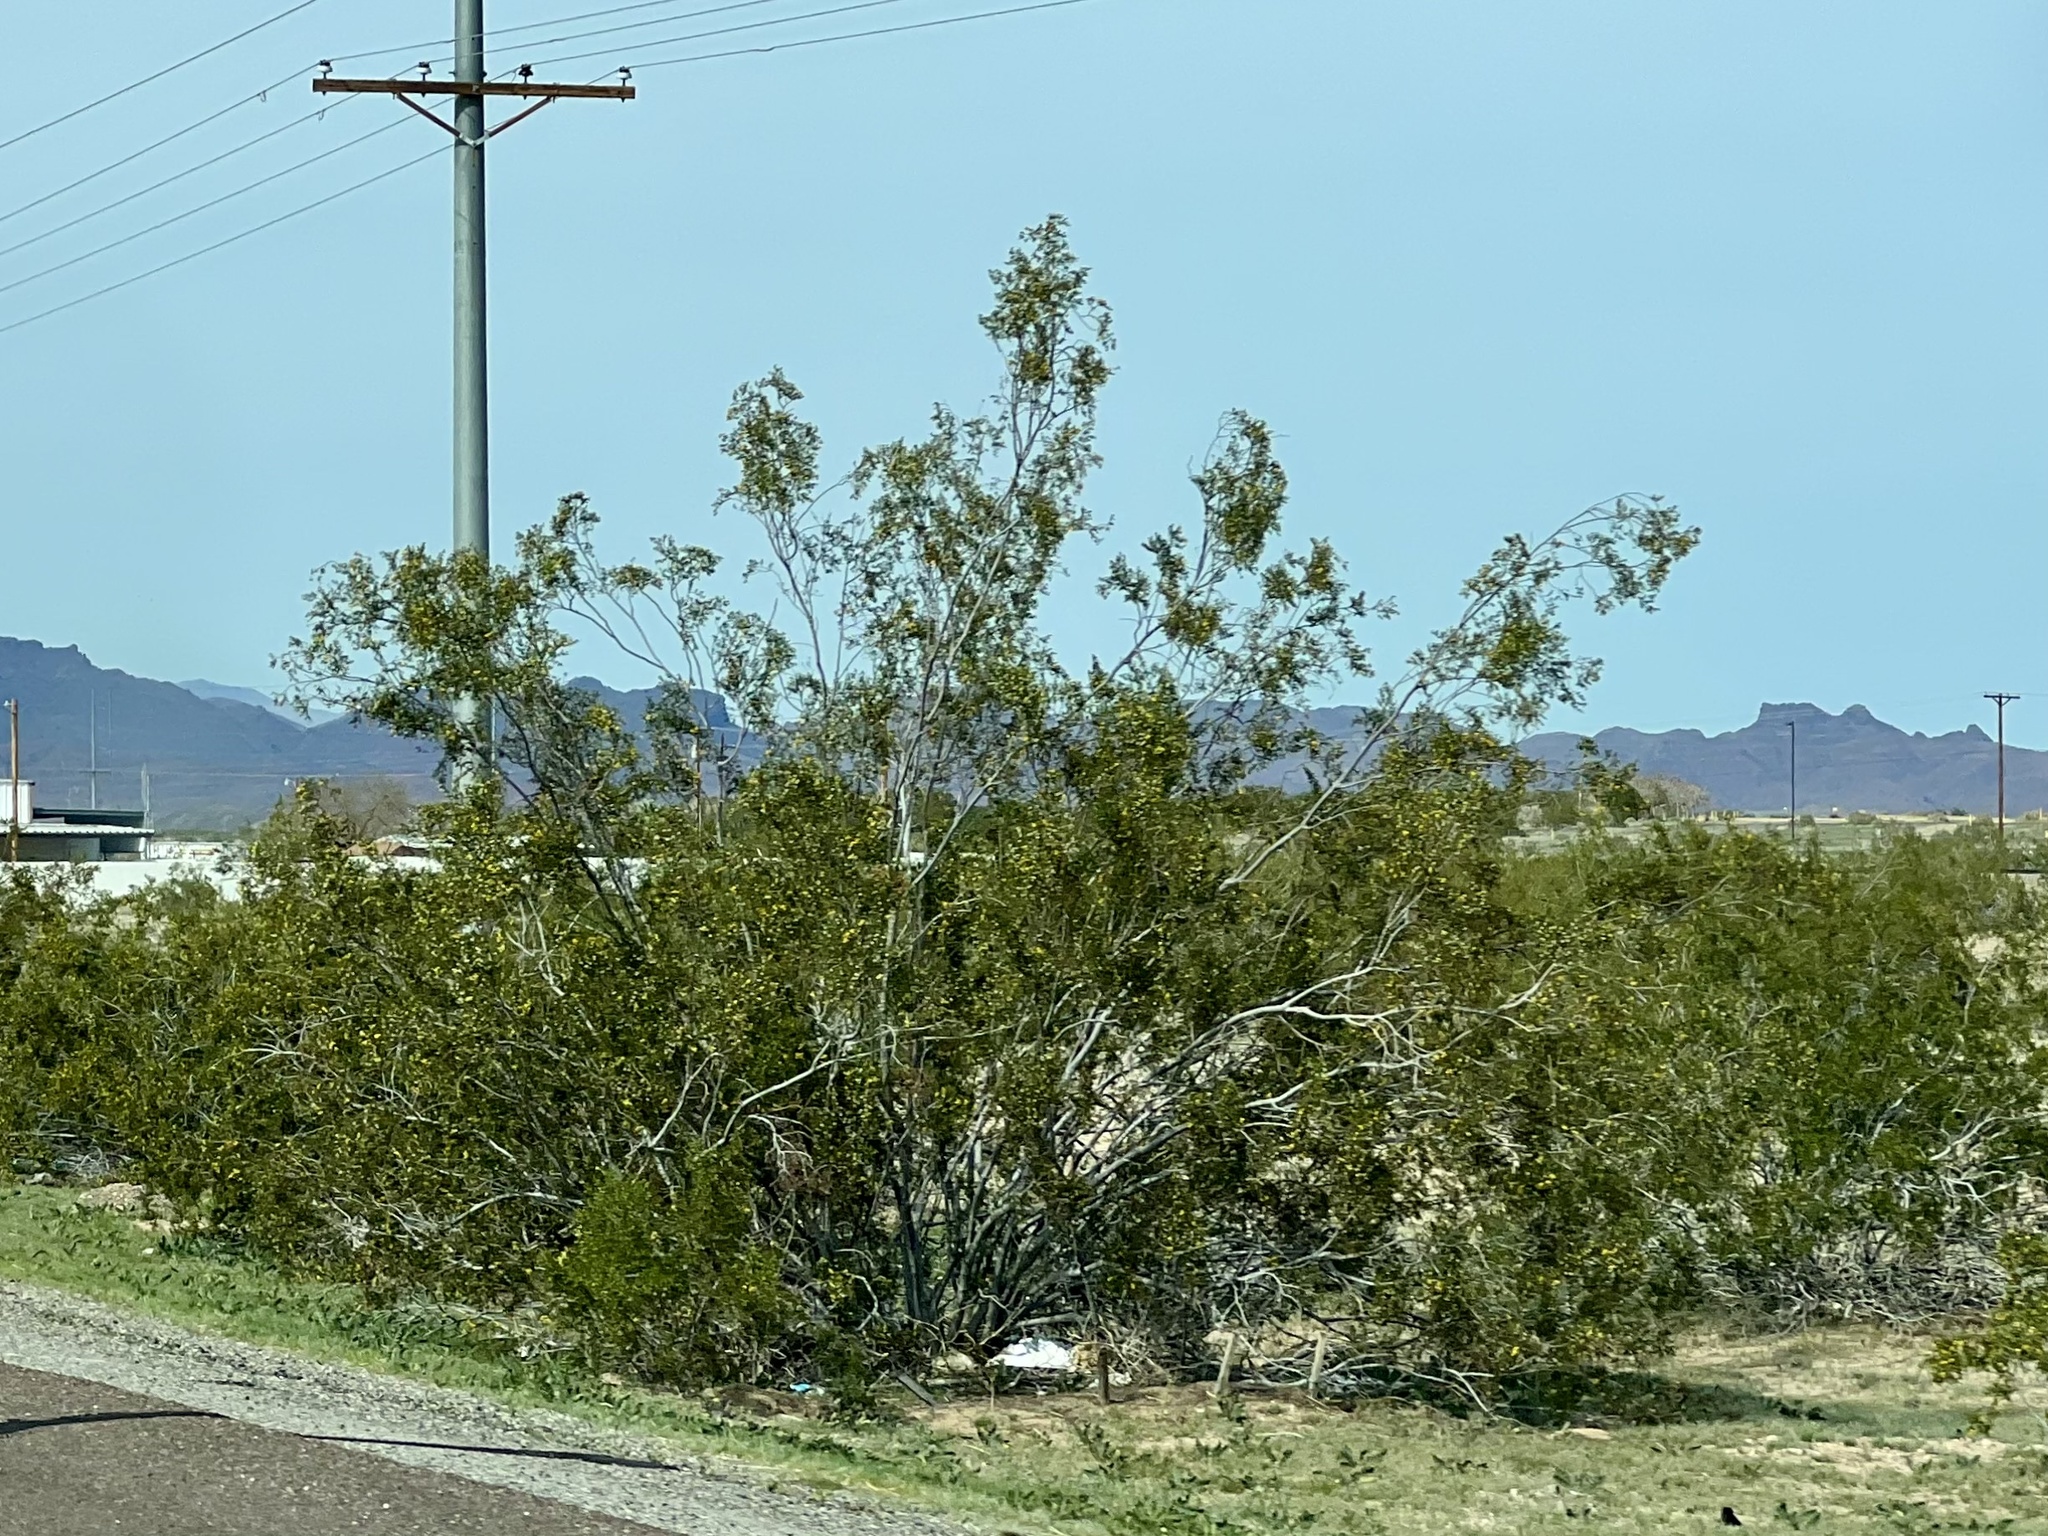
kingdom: Plantae
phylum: Tracheophyta
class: Magnoliopsida
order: Zygophyllales
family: Zygophyllaceae
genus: Larrea
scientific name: Larrea tridentata
